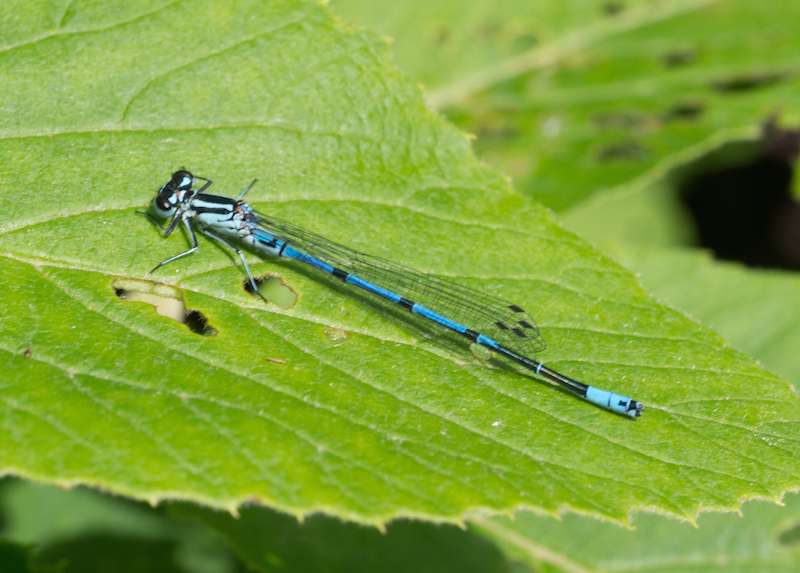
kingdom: Animalia
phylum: Arthropoda
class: Insecta
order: Odonata
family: Coenagrionidae
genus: Coenagrion
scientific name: Coenagrion puella
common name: Azure damselfly
